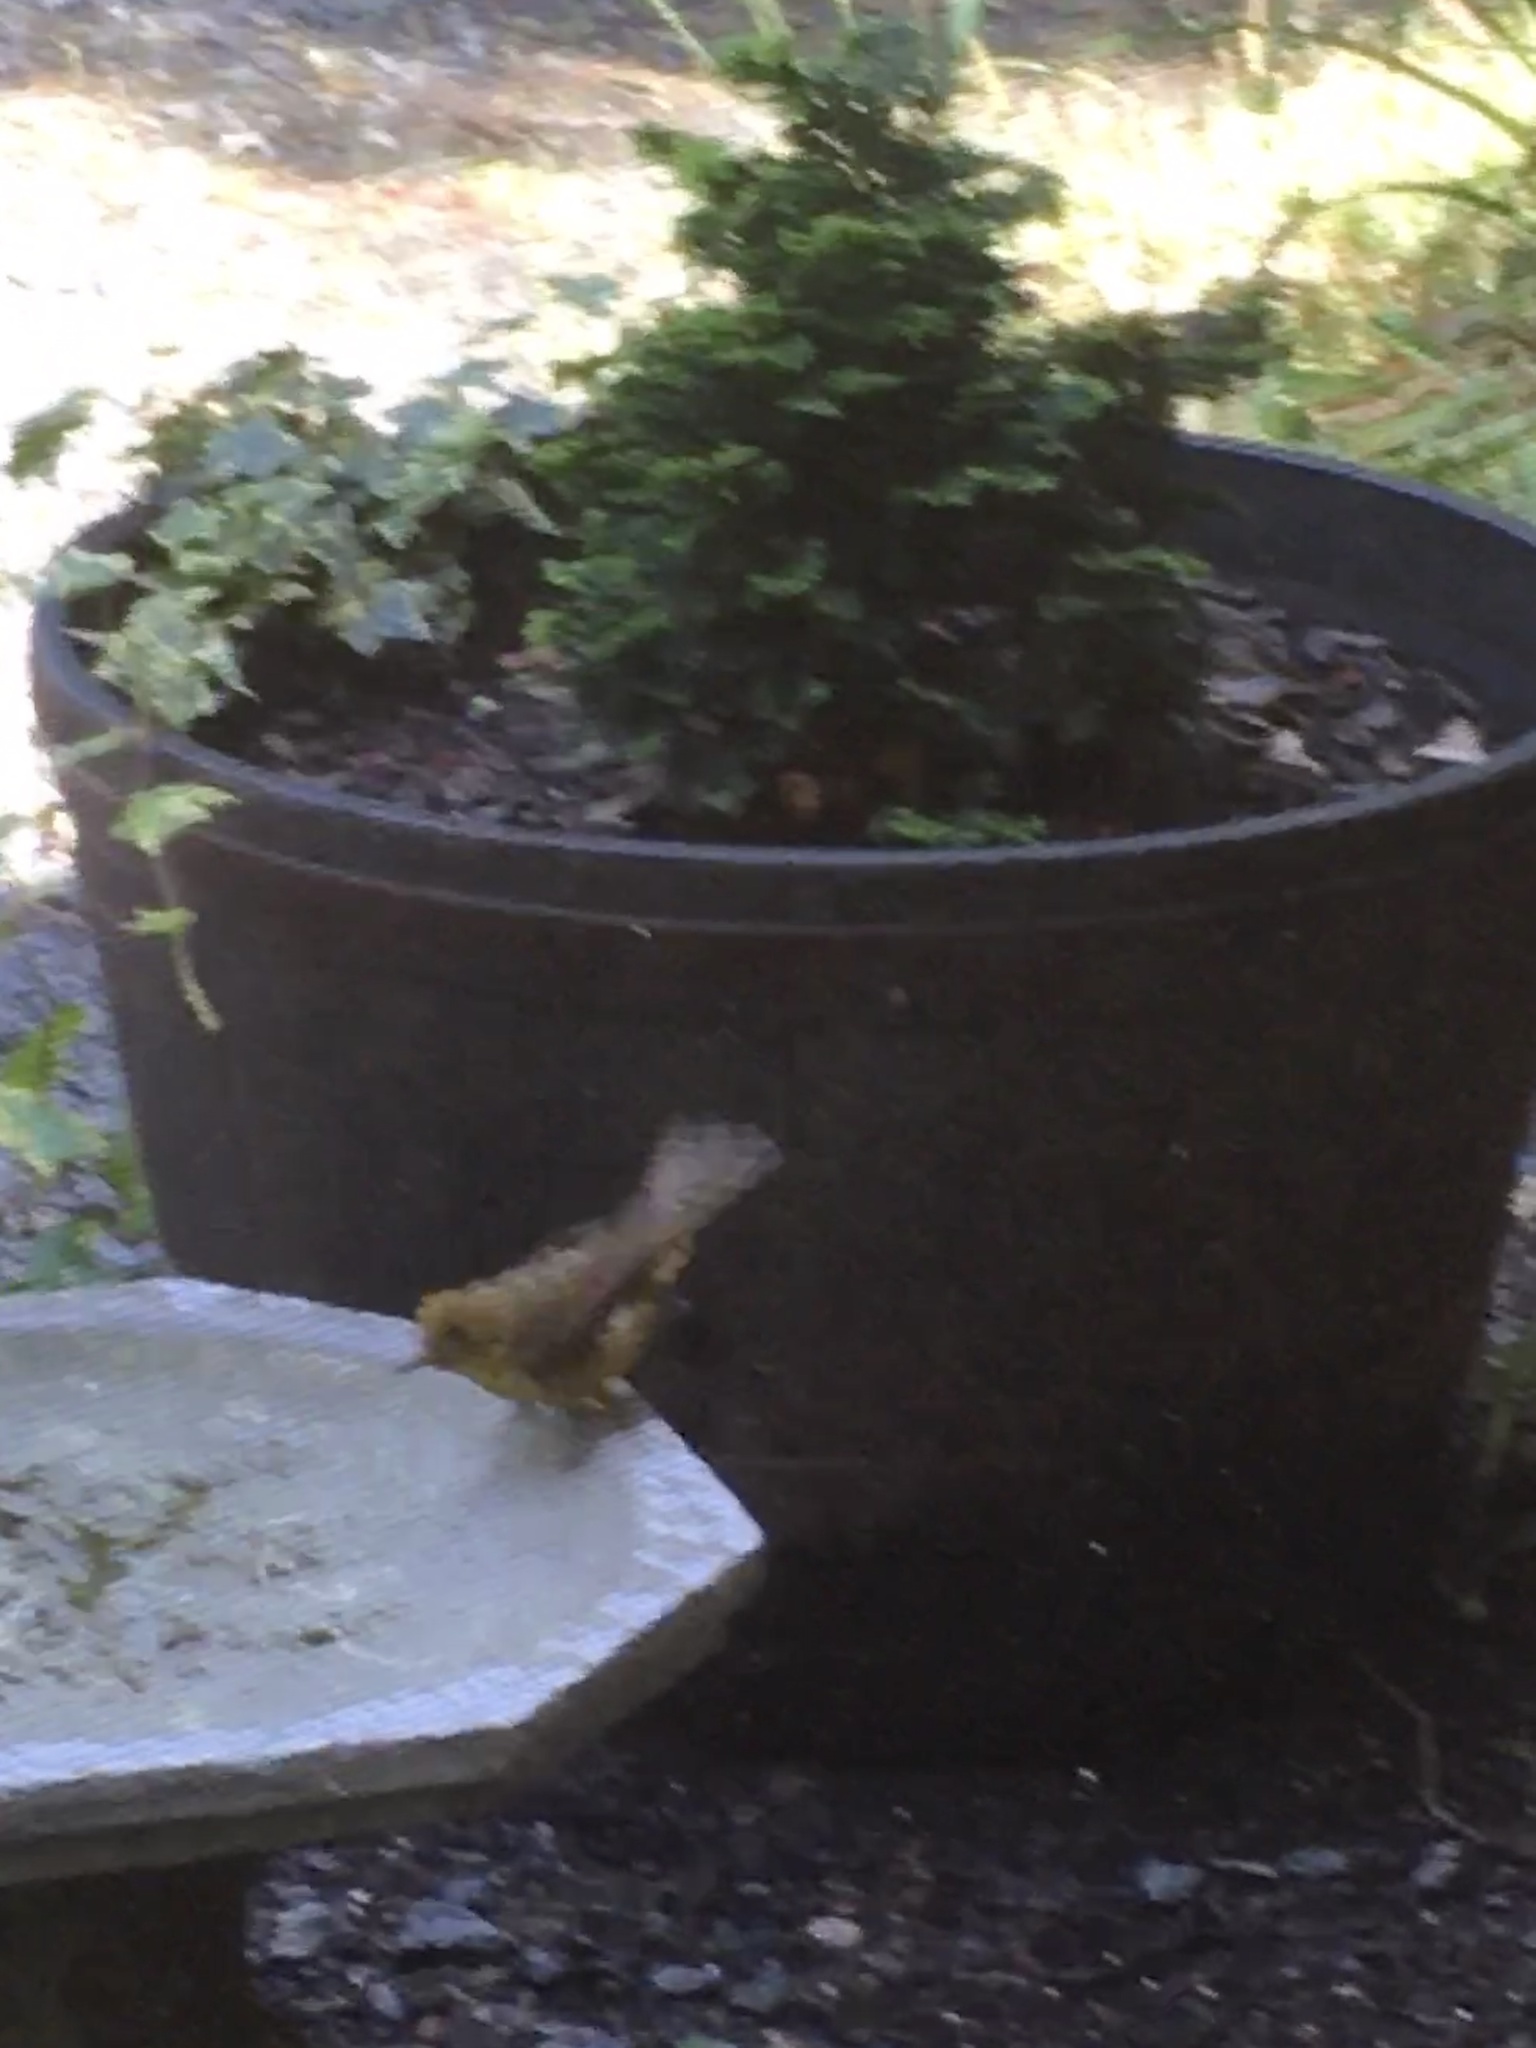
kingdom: Animalia
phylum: Chordata
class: Aves
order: Passeriformes
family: Cardinalidae
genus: Piranga
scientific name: Piranga olivacea
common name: Scarlet tanager
